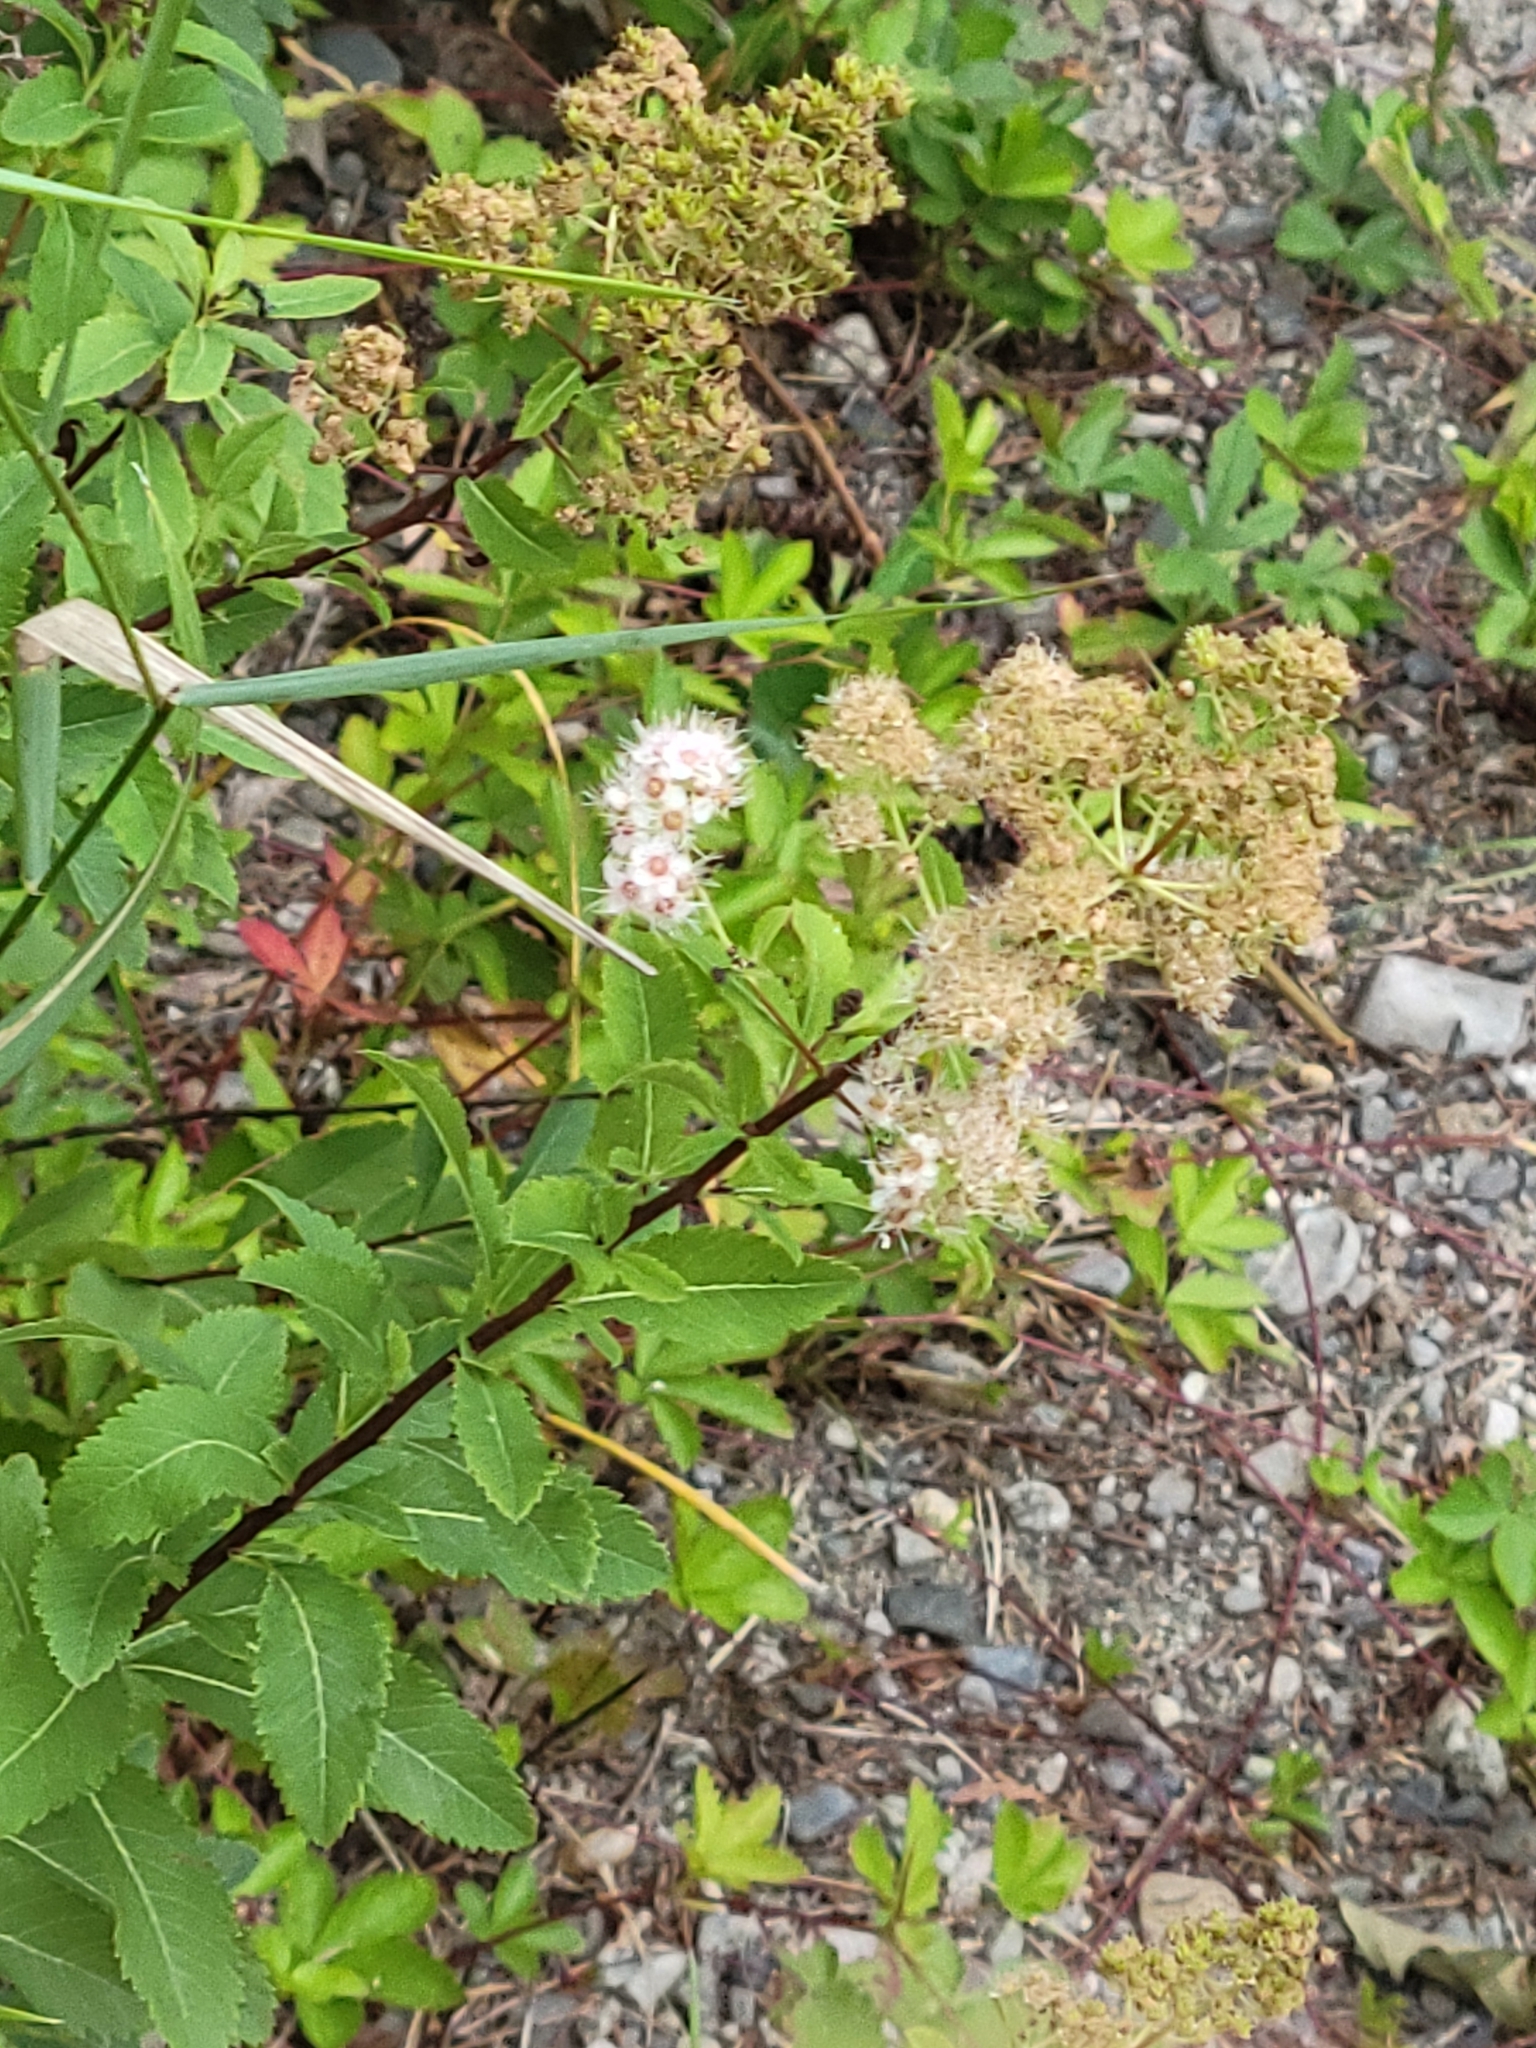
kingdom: Plantae
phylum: Tracheophyta
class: Magnoliopsida
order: Rosales
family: Rosaceae
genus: Spiraea
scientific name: Spiraea alba
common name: Pale bridewort
